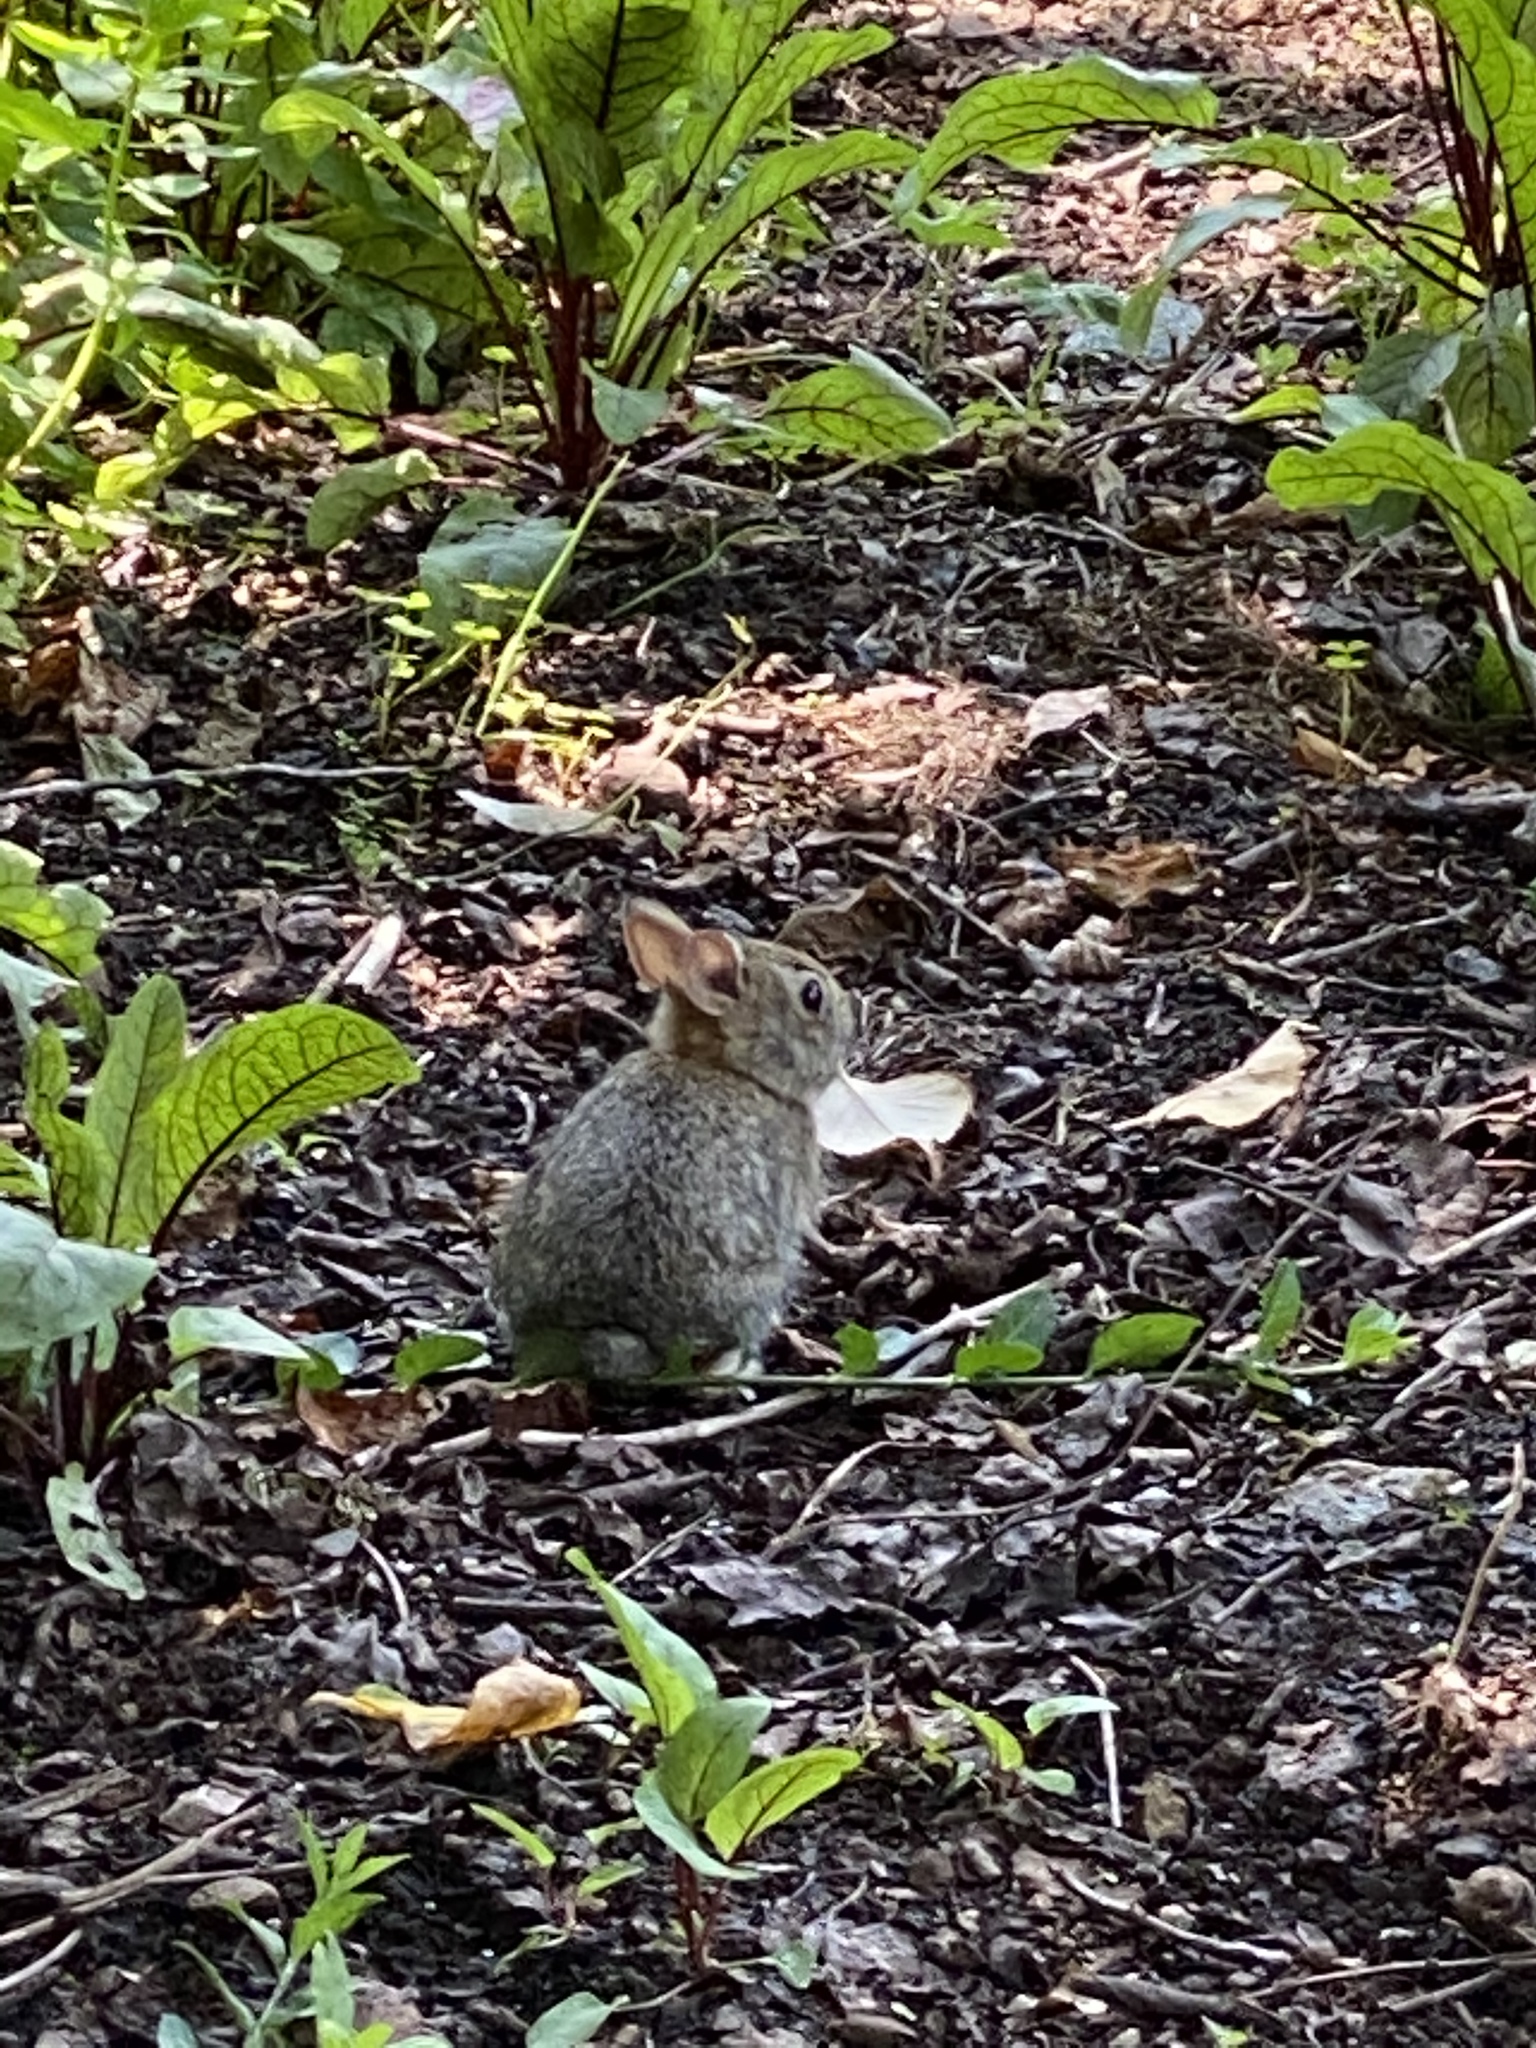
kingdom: Animalia
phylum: Chordata
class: Mammalia
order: Lagomorpha
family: Leporidae
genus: Sylvilagus
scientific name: Sylvilagus floridanus
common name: Eastern cottontail
